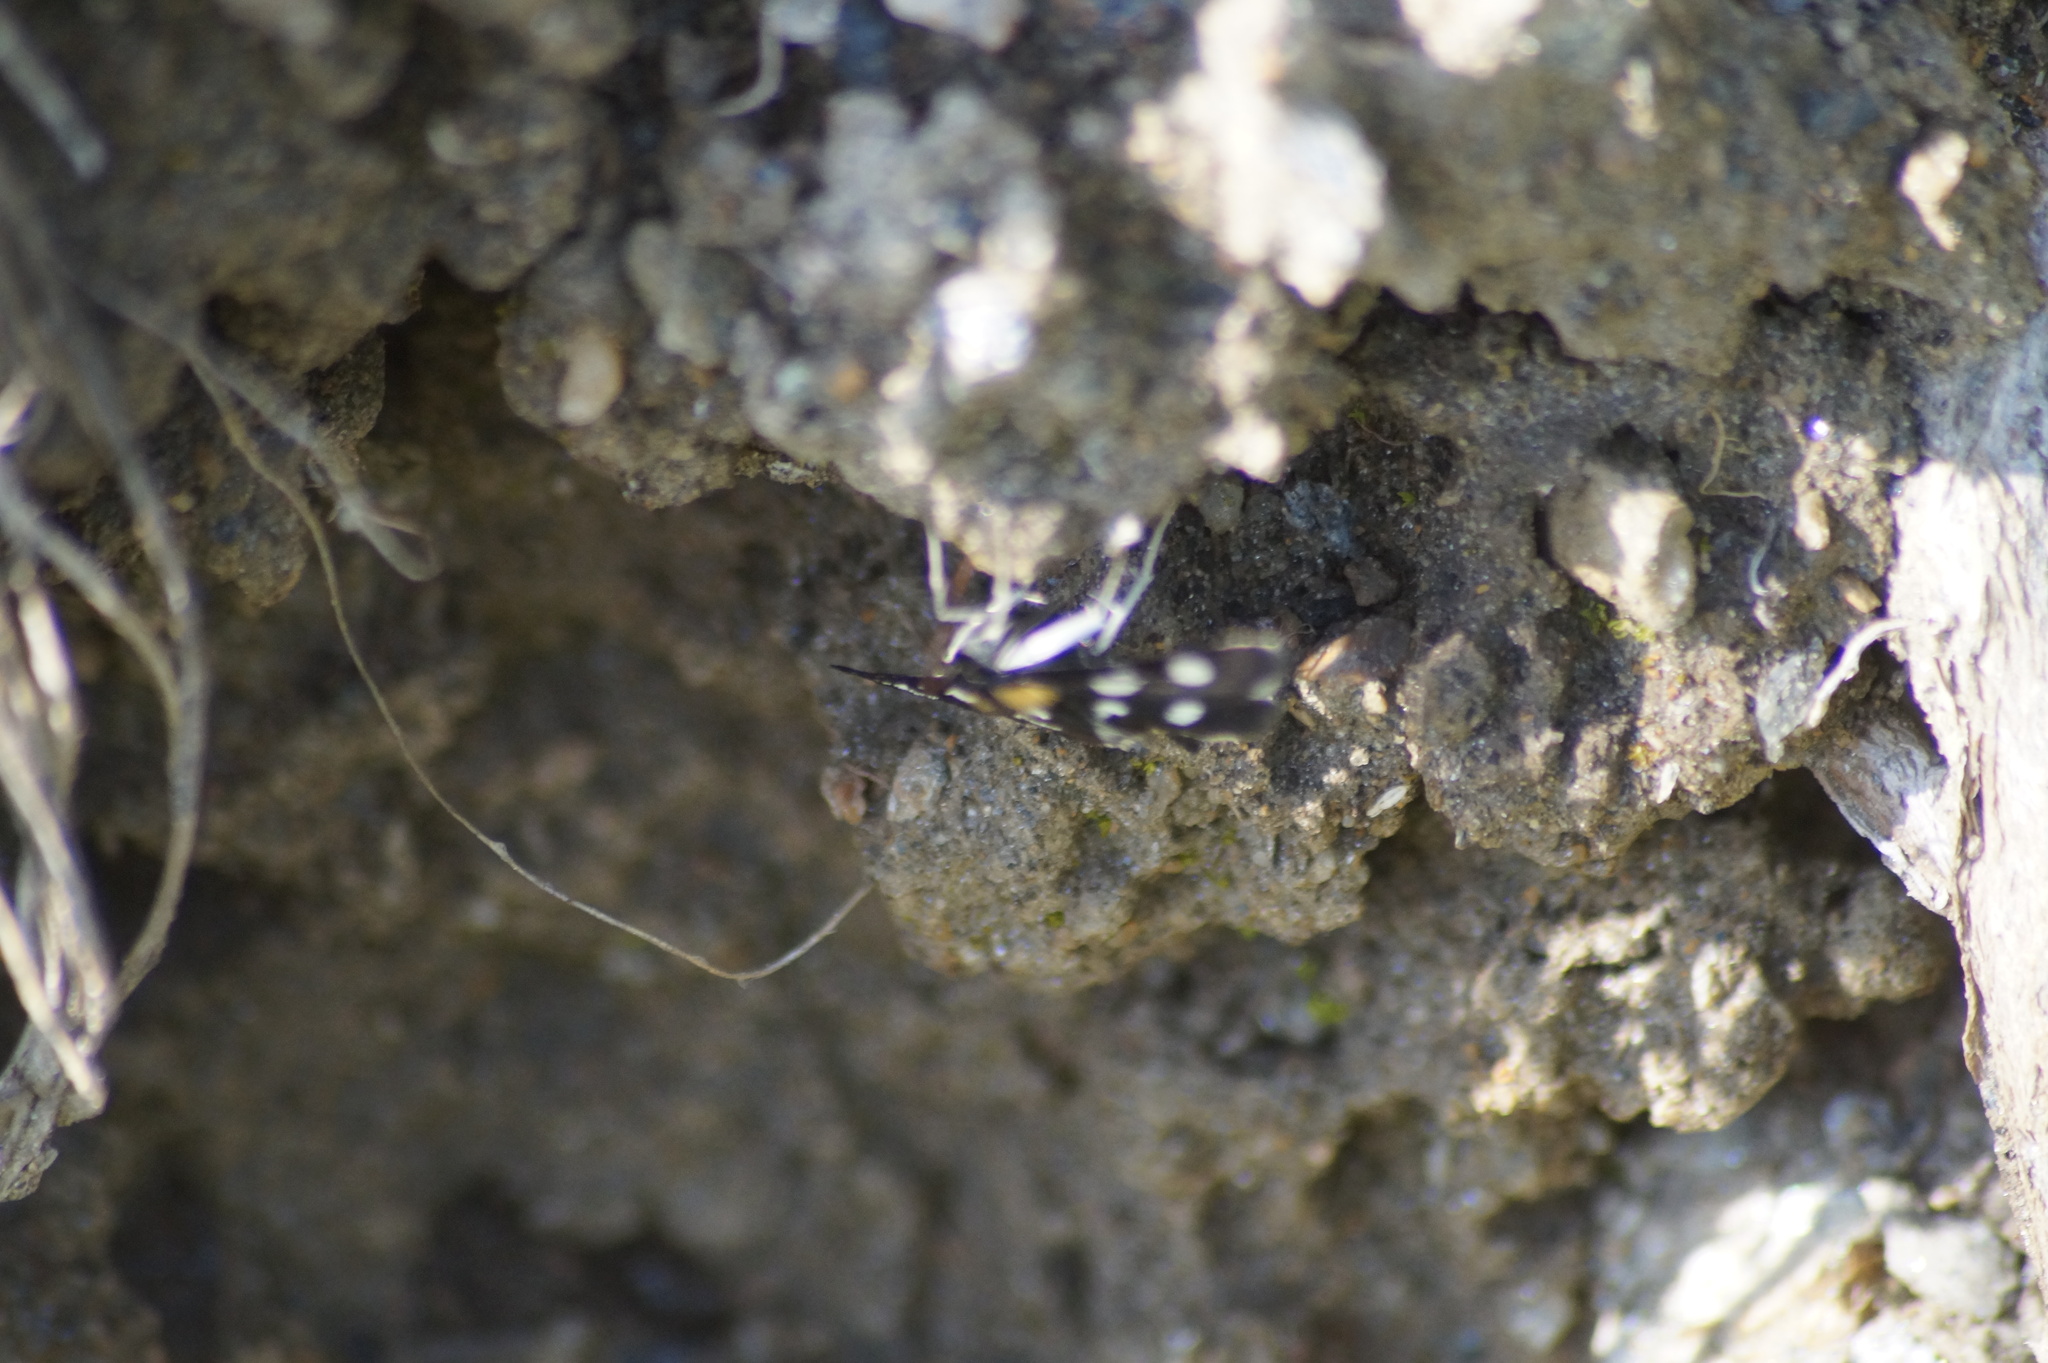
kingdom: Animalia
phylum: Arthropoda
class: Insecta
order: Lepidoptera
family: Crambidae
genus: Anania
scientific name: Anania funebris
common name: White-spotted sable moth
